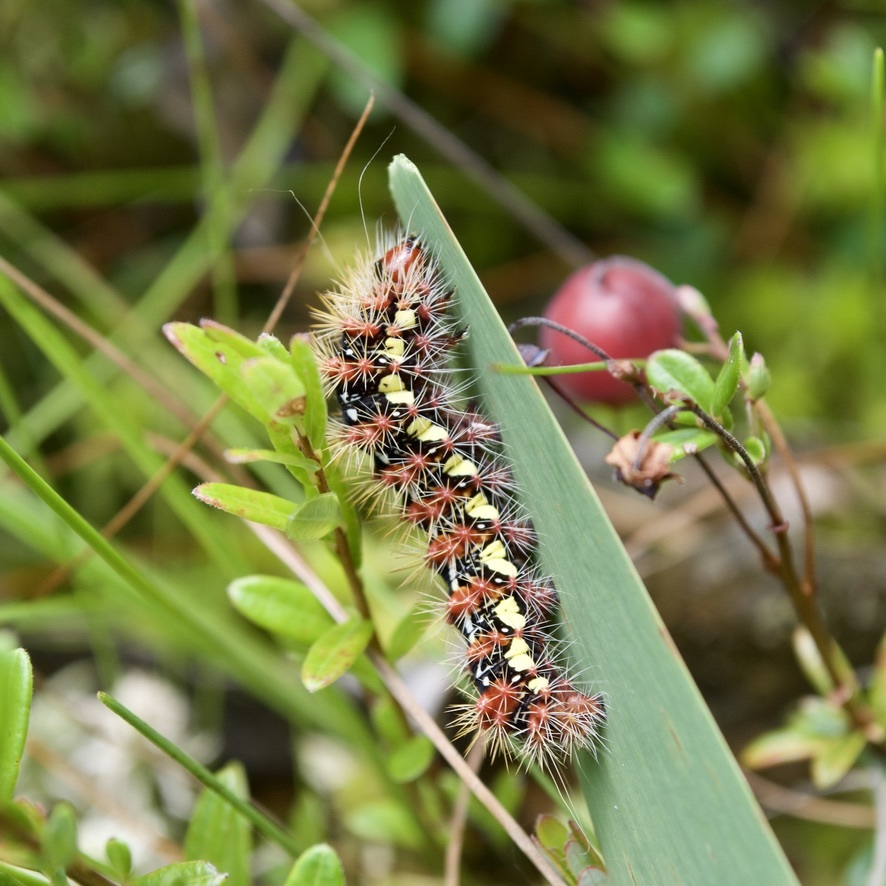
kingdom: Animalia
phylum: Arthropoda
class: Insecta
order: Lepidoptera
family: Noctuidae
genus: Acronicta
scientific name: Acronicta oblinita
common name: Smeared dagger
